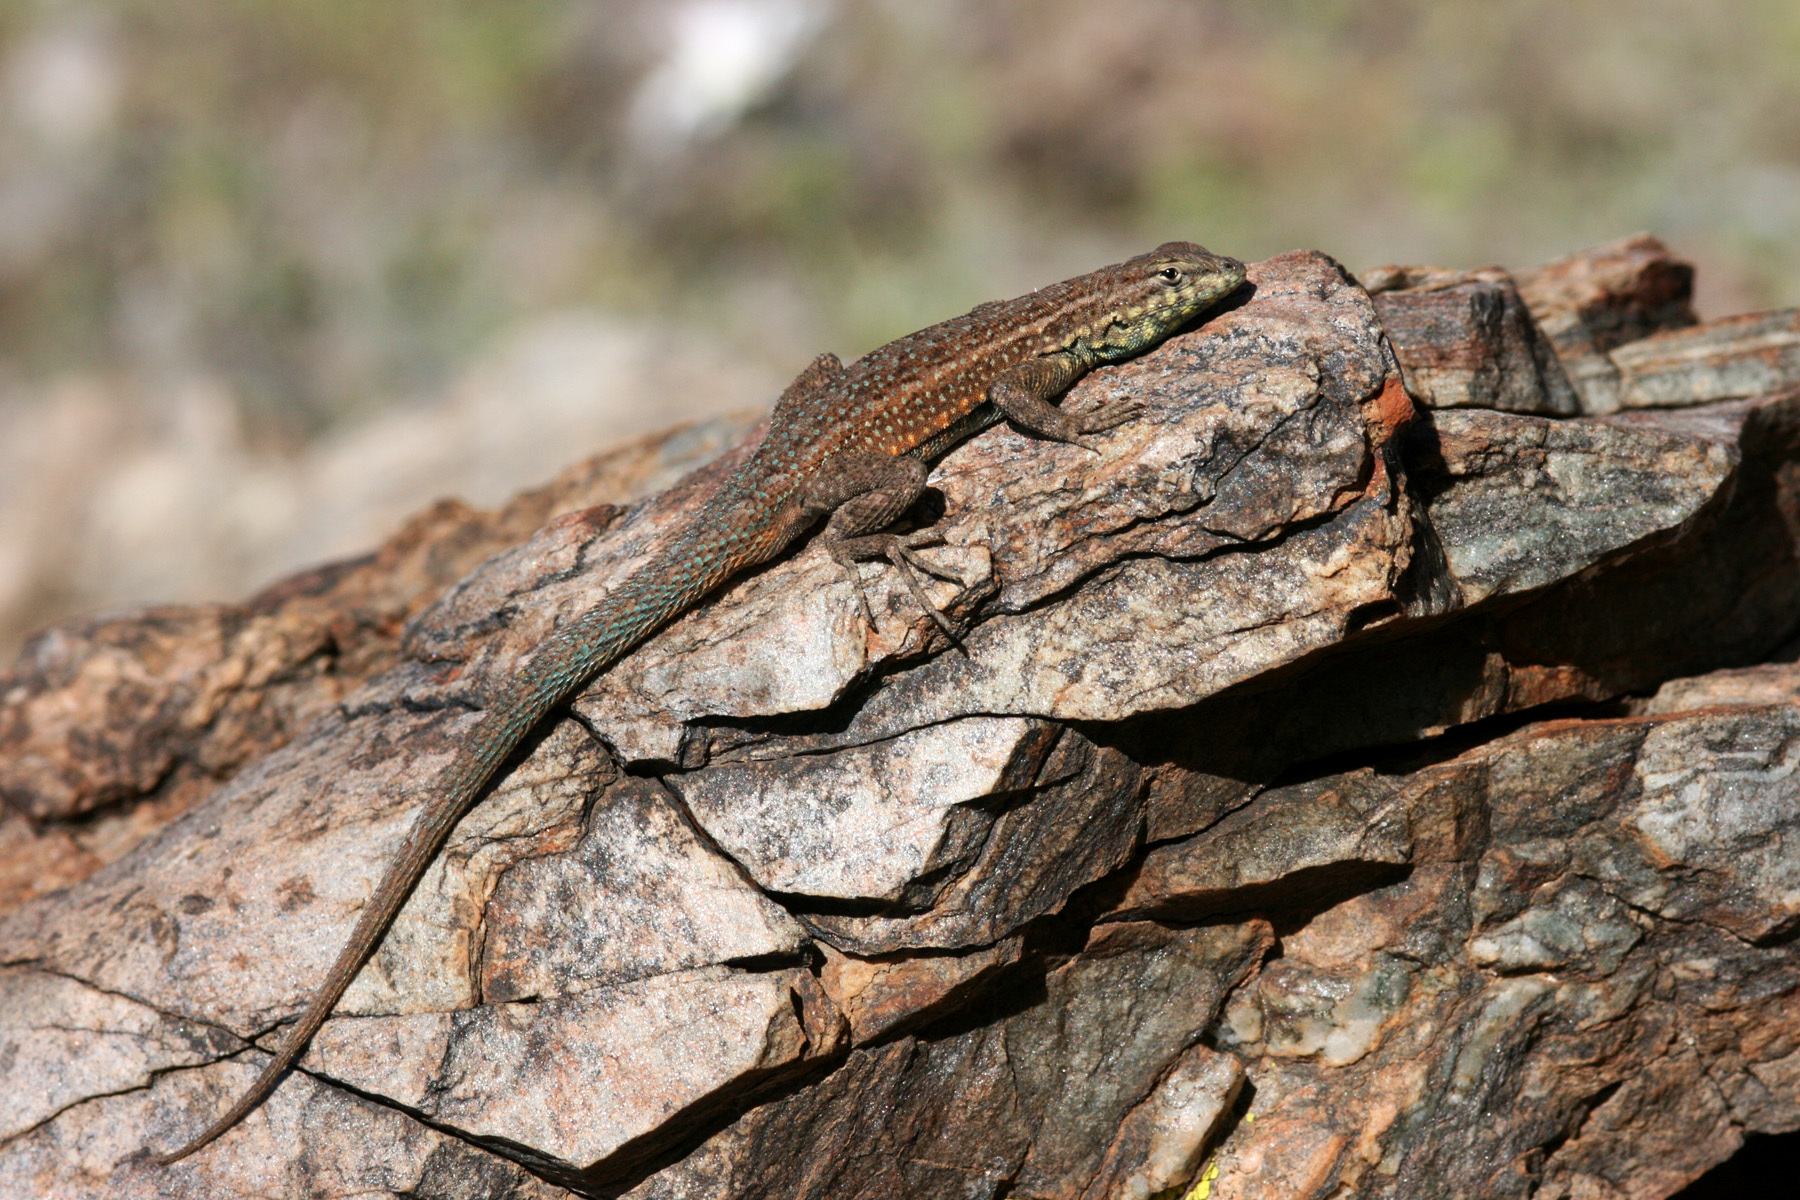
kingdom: Animalia
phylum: Chordata
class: Squamata
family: Phrynosomatidae
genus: Uta
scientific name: Uta stansburiana
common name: Side-blotched lizard
